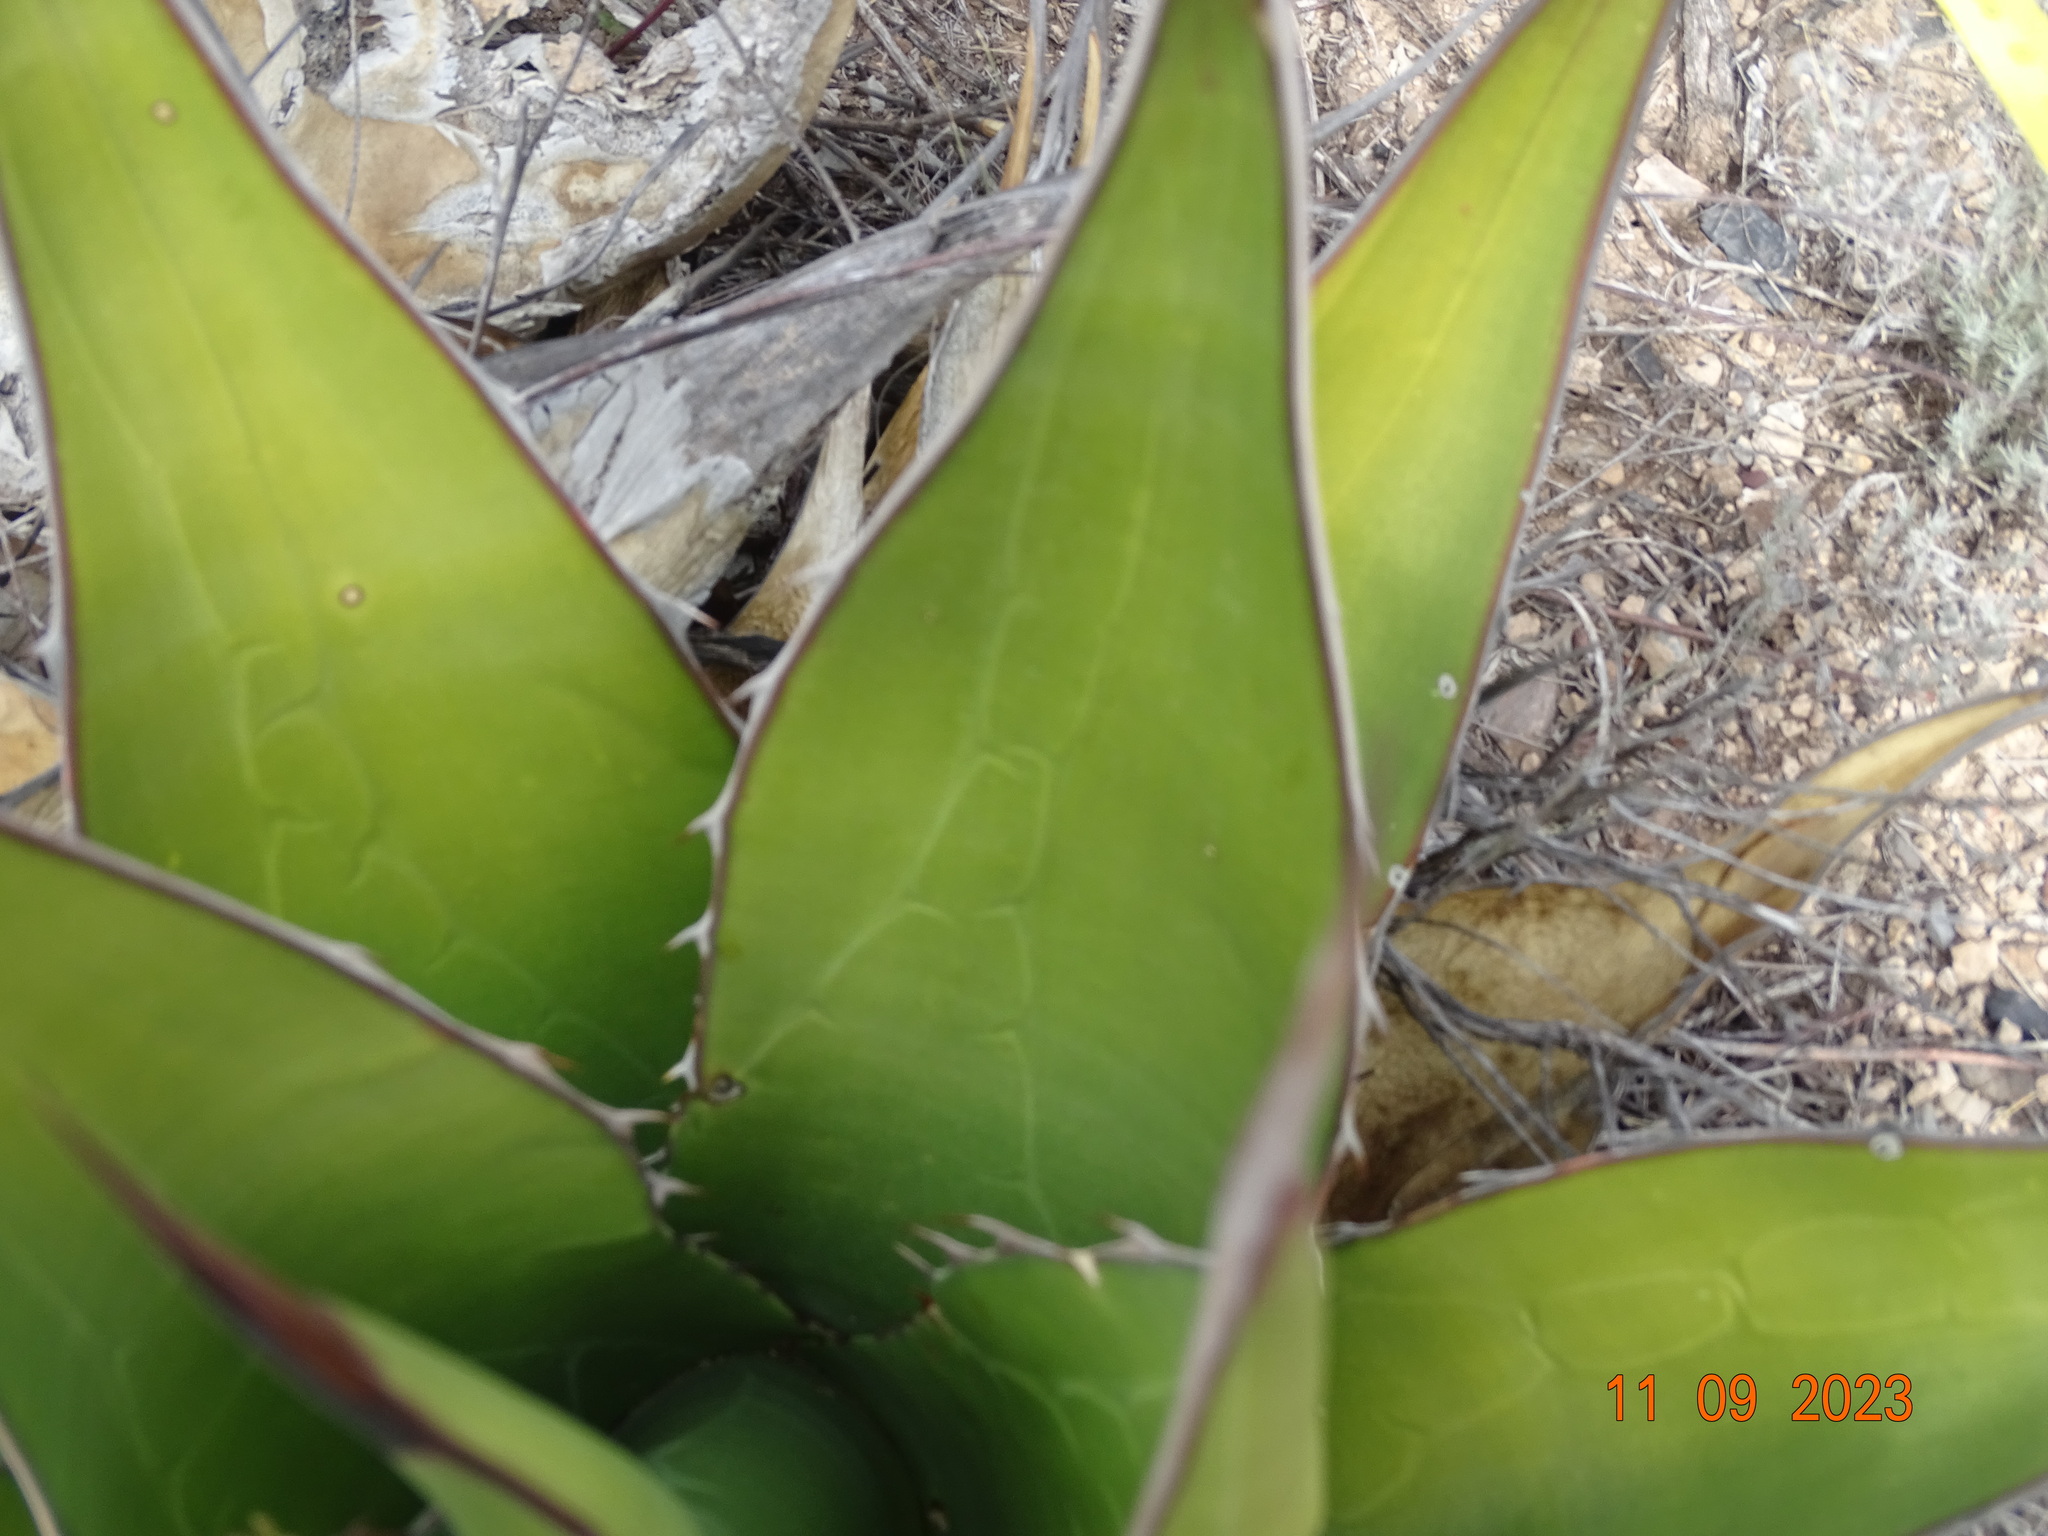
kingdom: Plantae
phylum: Tracheophyta
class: Liliopsida
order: Asparagales
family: Asparagaceae
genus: Agave
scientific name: Agave gentryi
